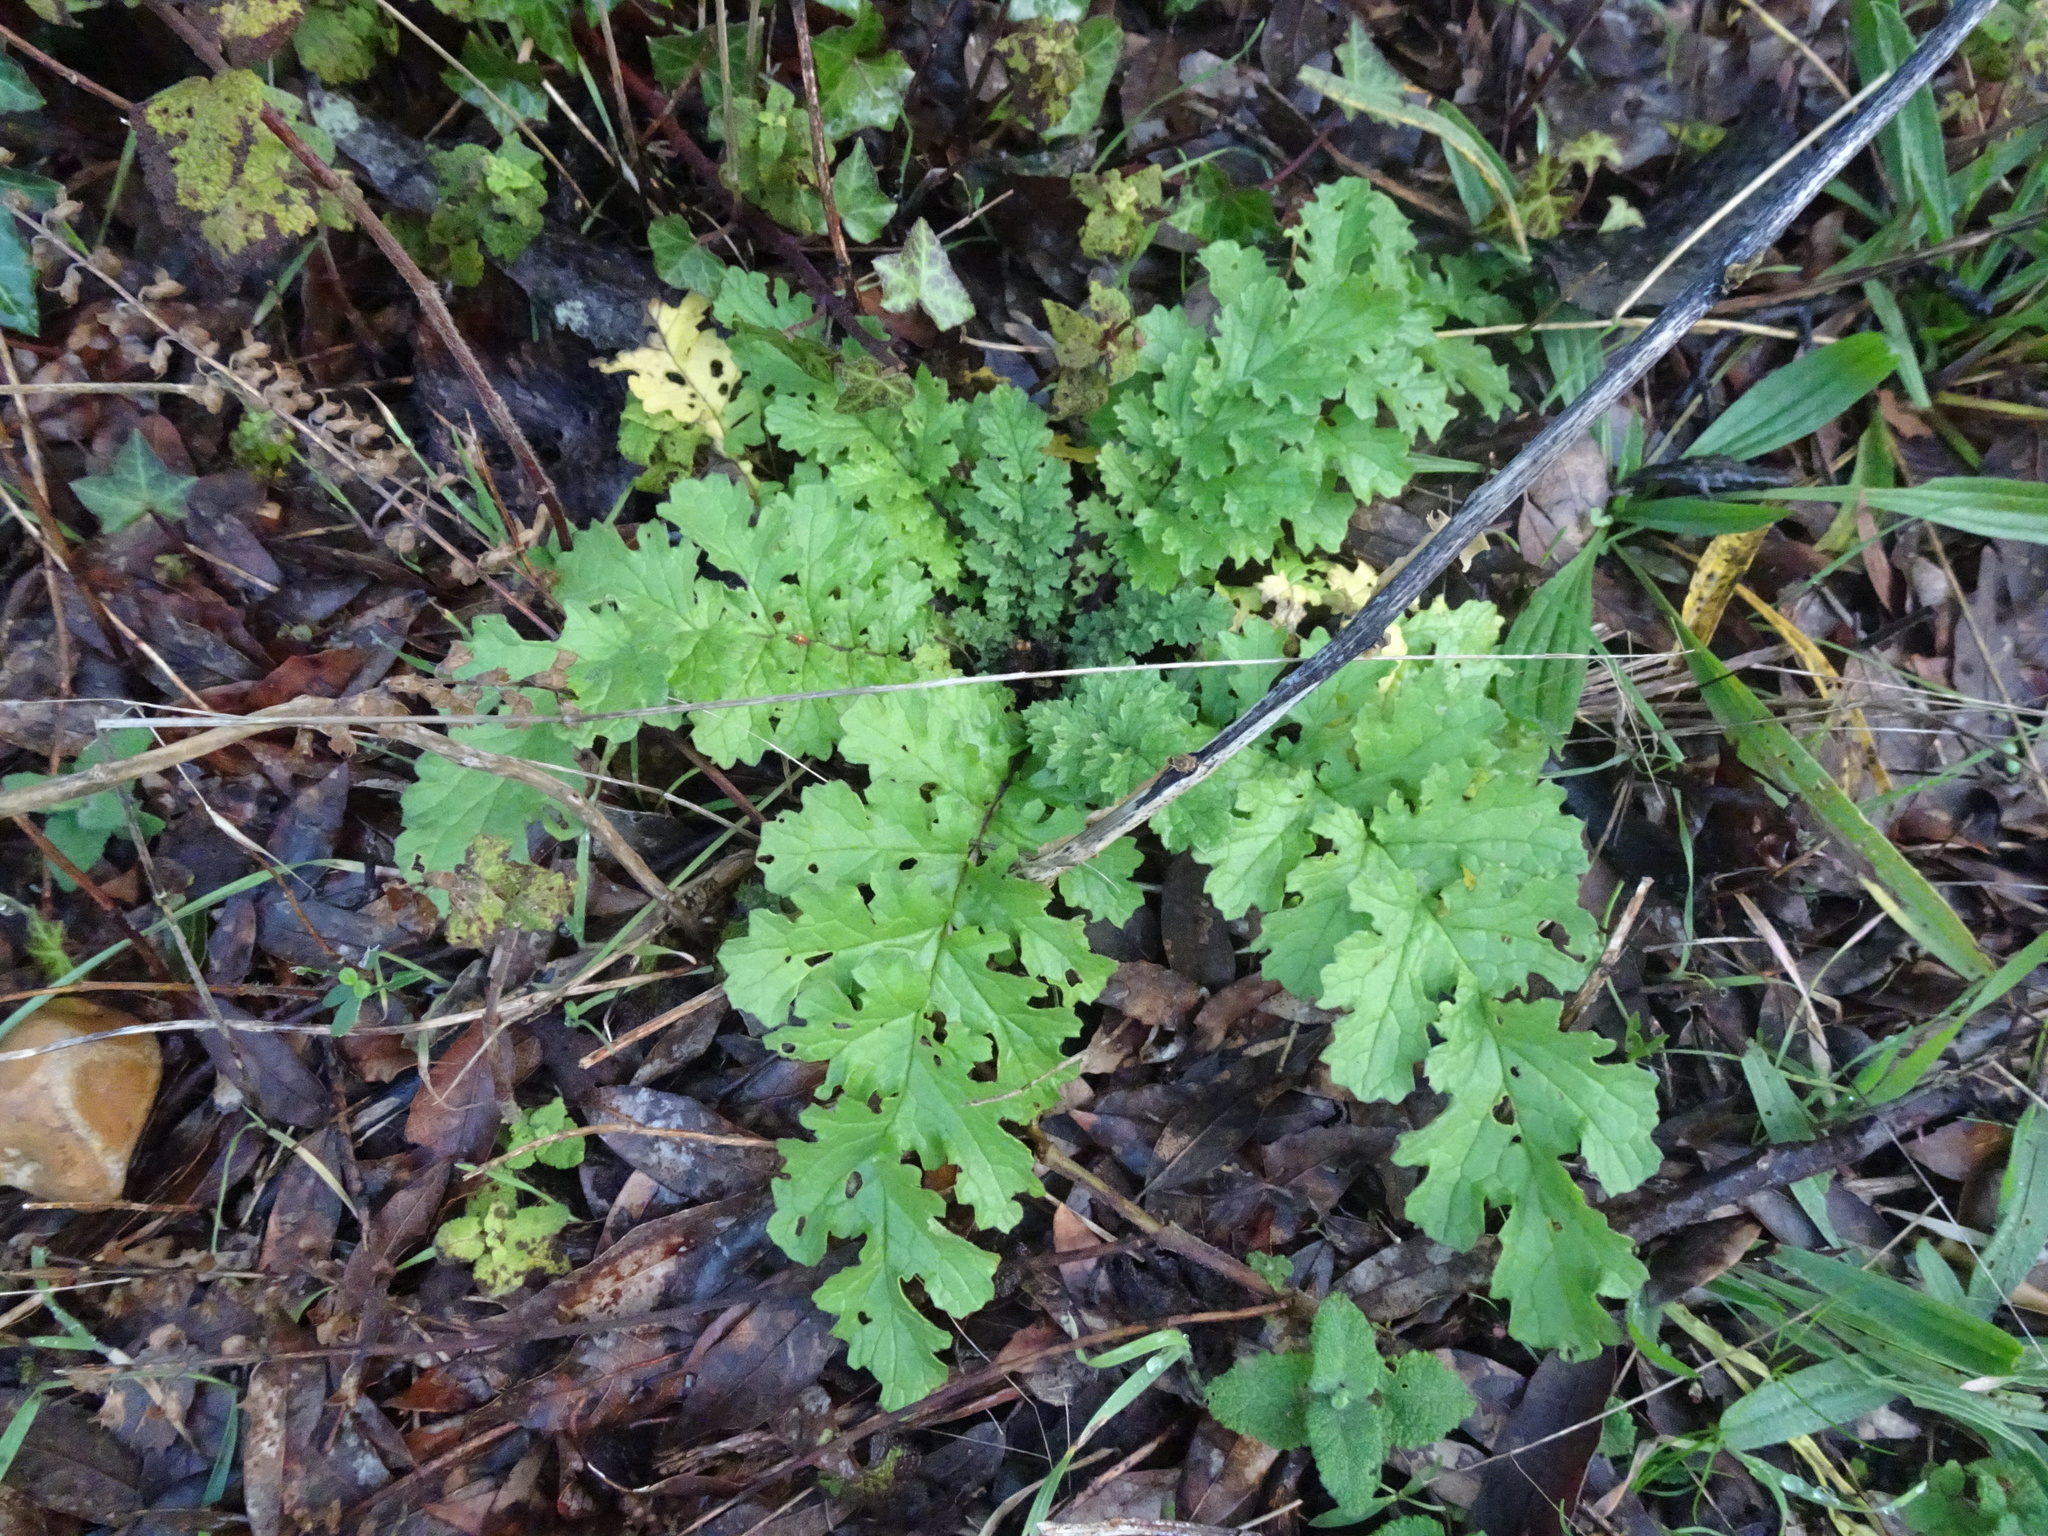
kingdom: Plantae
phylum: Tracheophyta
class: Magnoliopsida
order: Asterales
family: Asteraceae
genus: Jacobaea
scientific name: Jacobaea vulgaris
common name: Stinking willie
